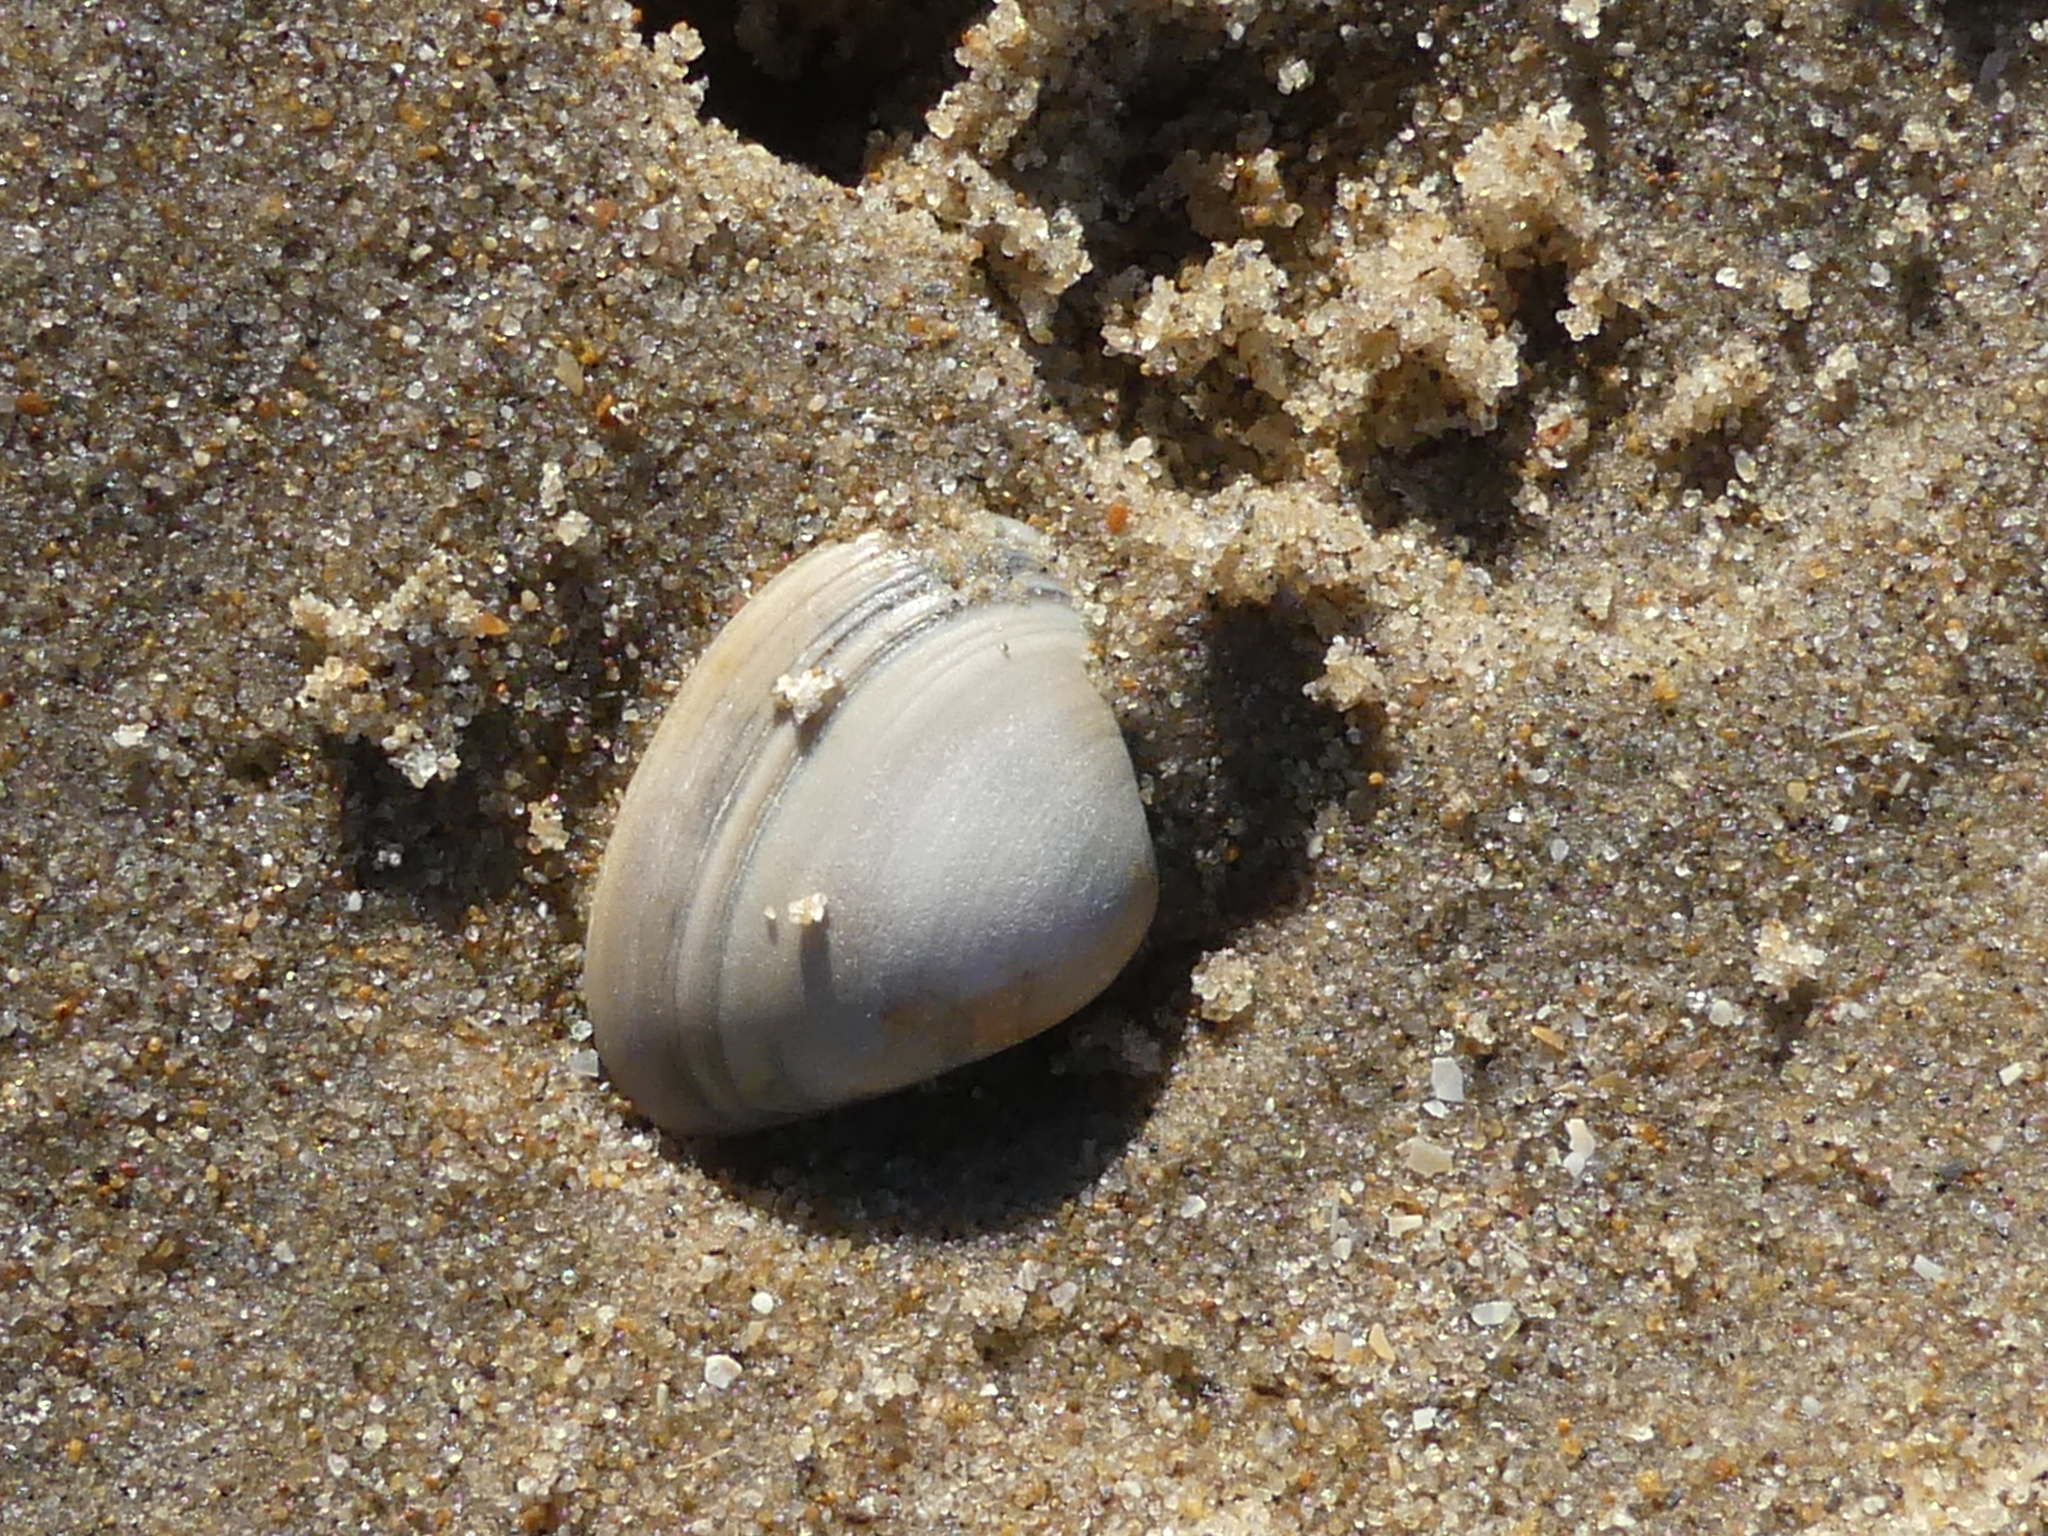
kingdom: Animalia
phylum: Mollusca
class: Bivalvia
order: Venerida
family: Mactridae
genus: Spisula
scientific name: Spisula subtruncata
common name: Cut trough shell
